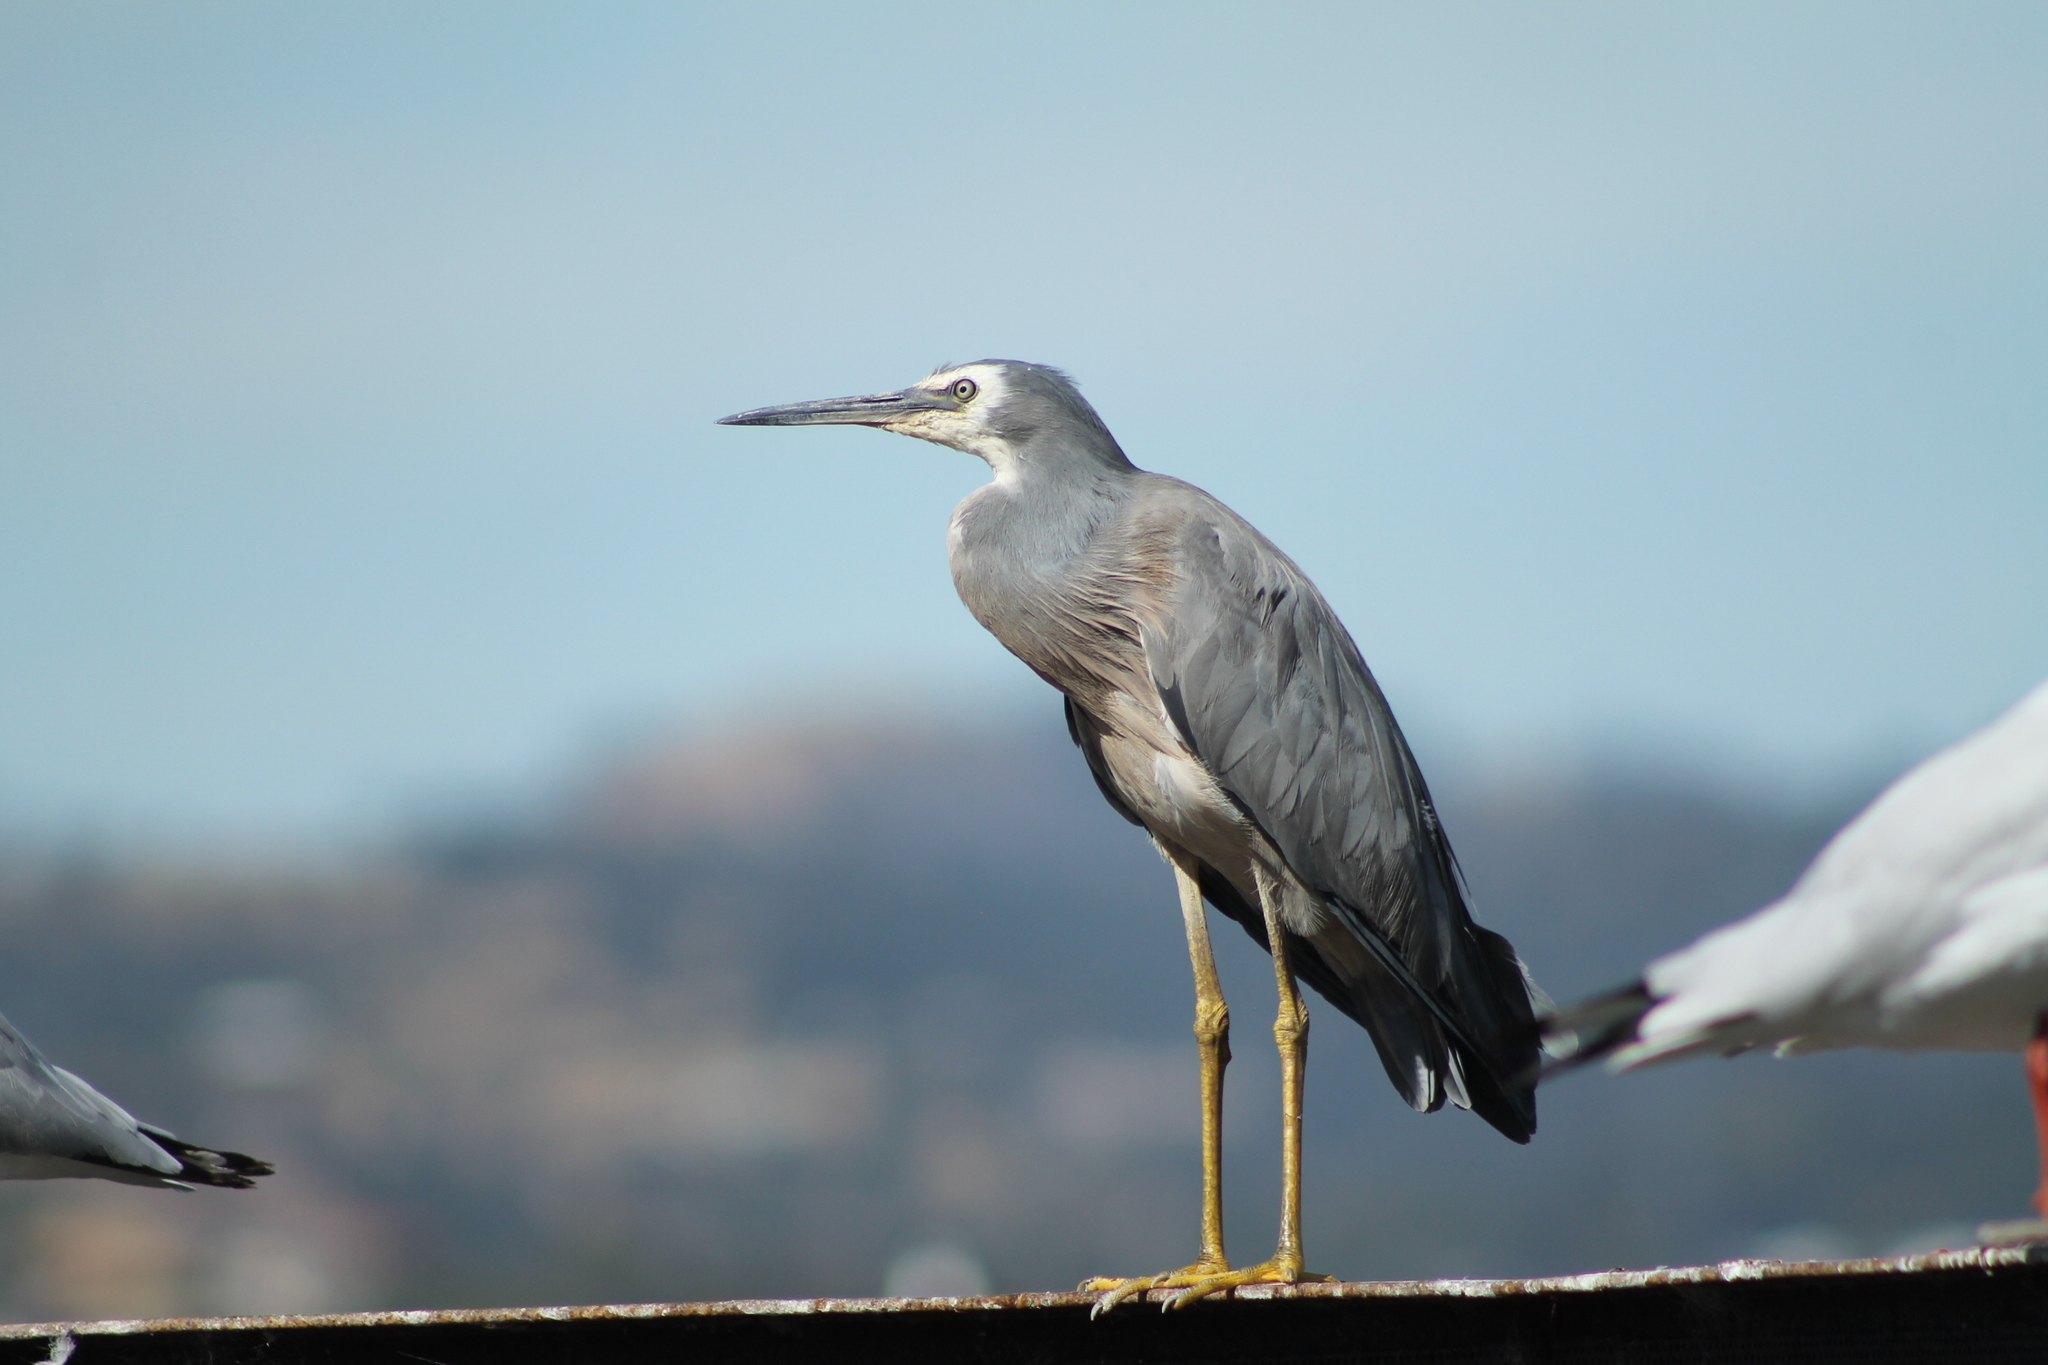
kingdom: Animalia
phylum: Chordata
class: Aves
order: Pelecaniformes
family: Ardeidae
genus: Egretta
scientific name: Egretta novaehollandiae
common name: White-faced heron
